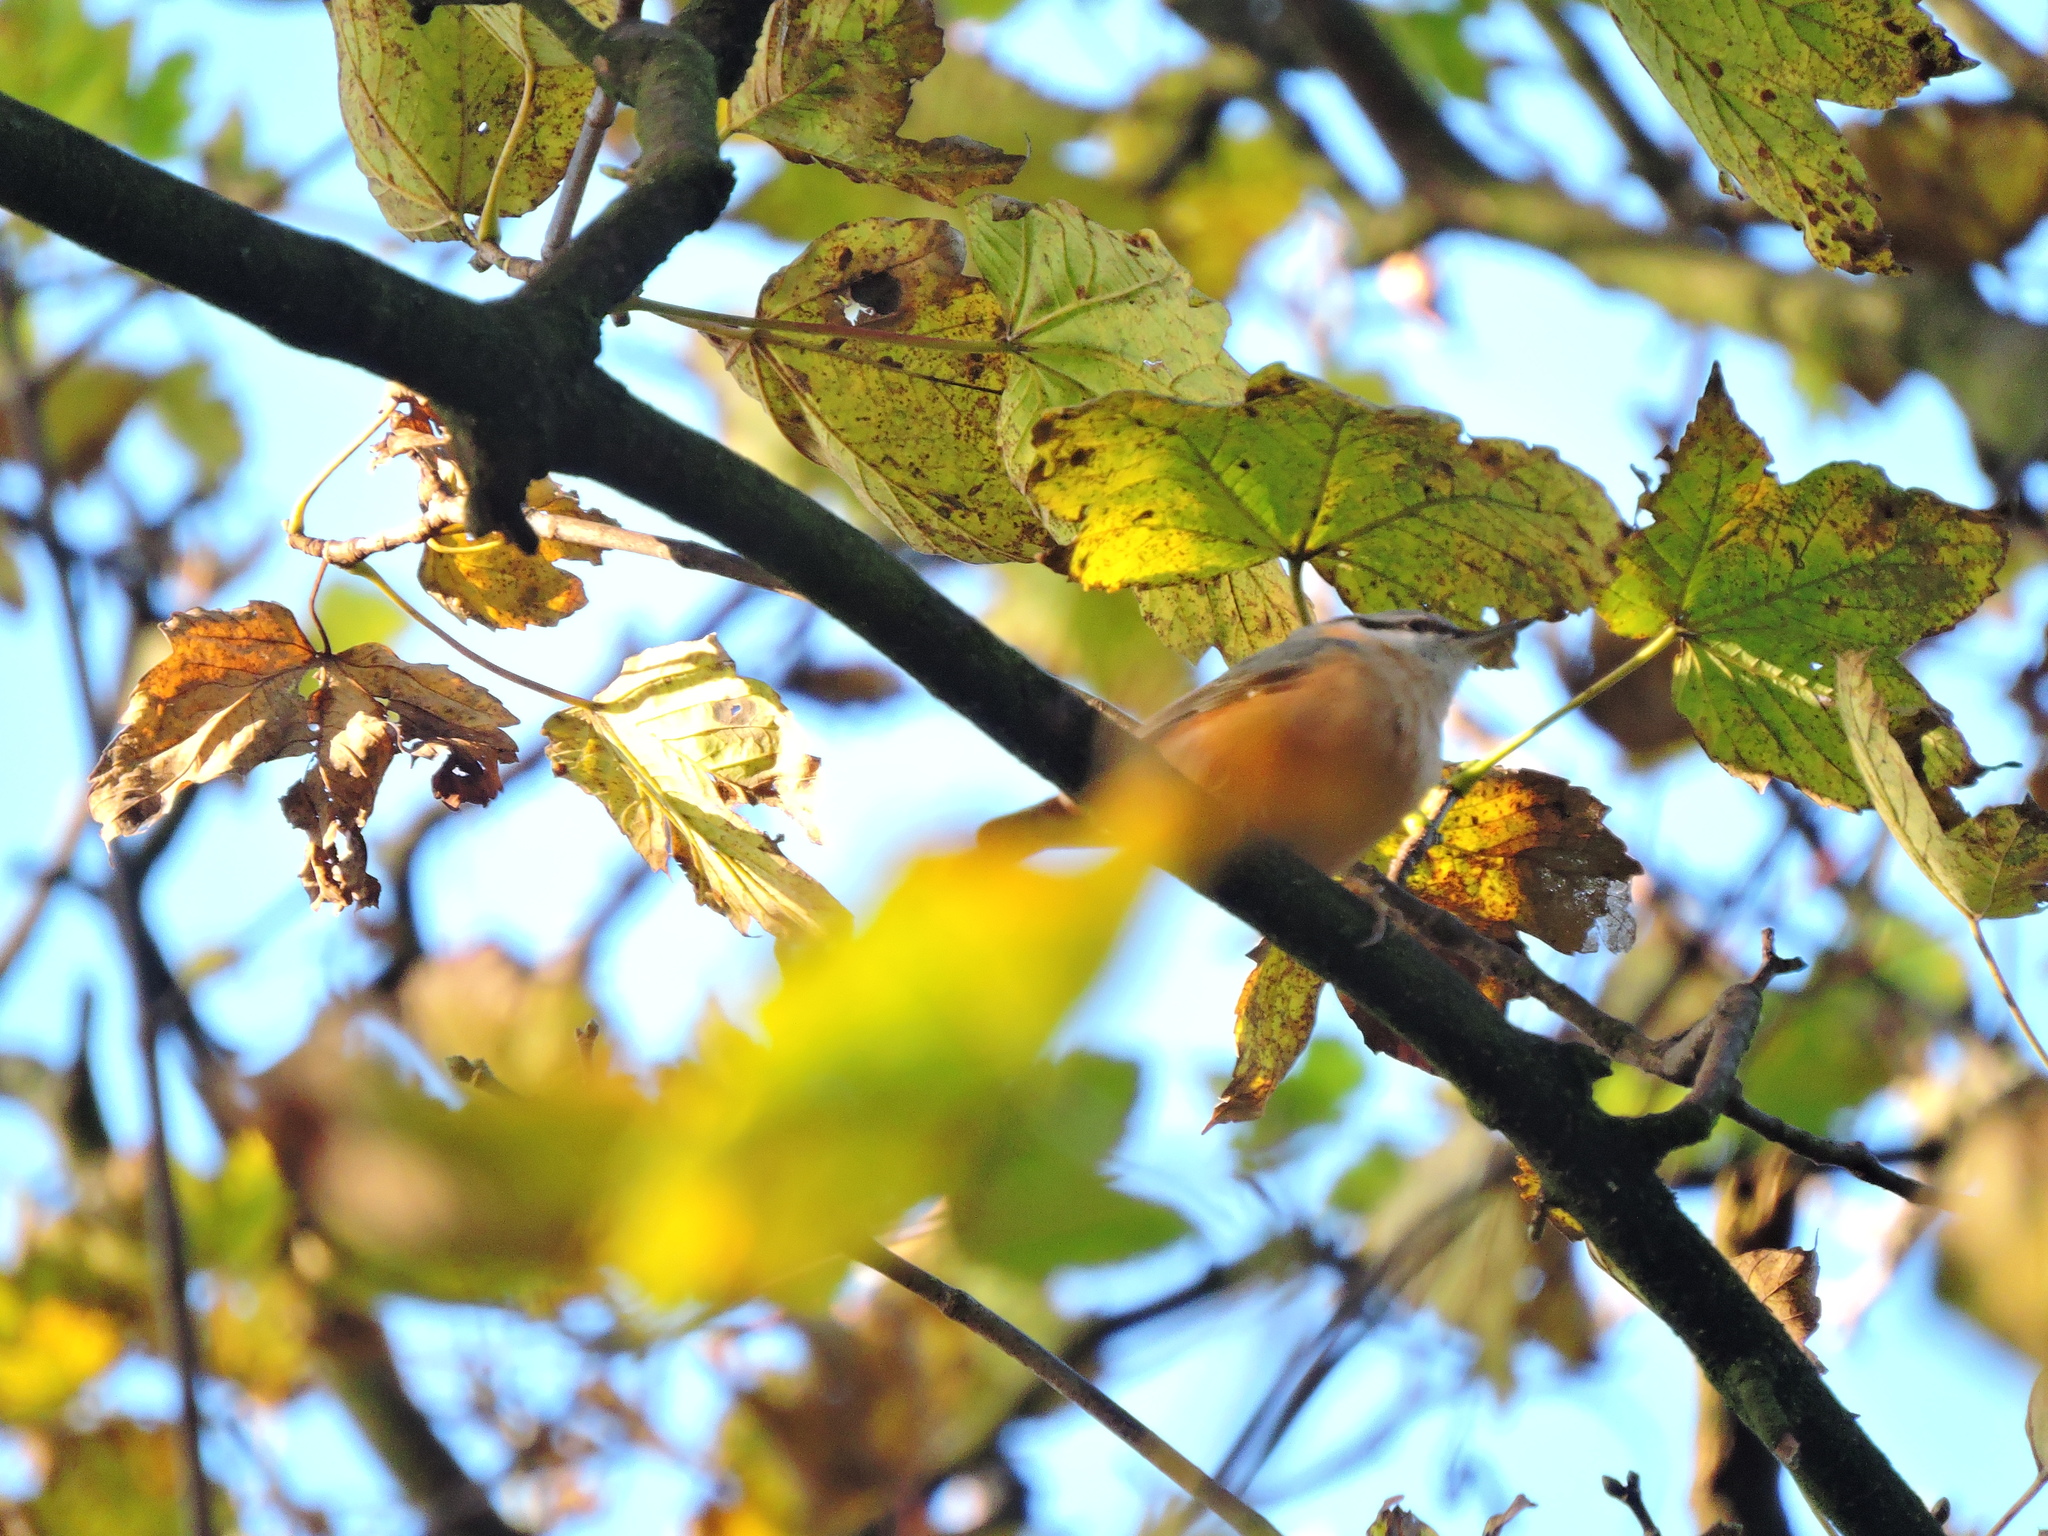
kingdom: Animalia
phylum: Chordata
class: Aves
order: Passeriformes
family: Sittidae
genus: Sitta
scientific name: Sitta europaea
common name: Eurasian nuthatch
